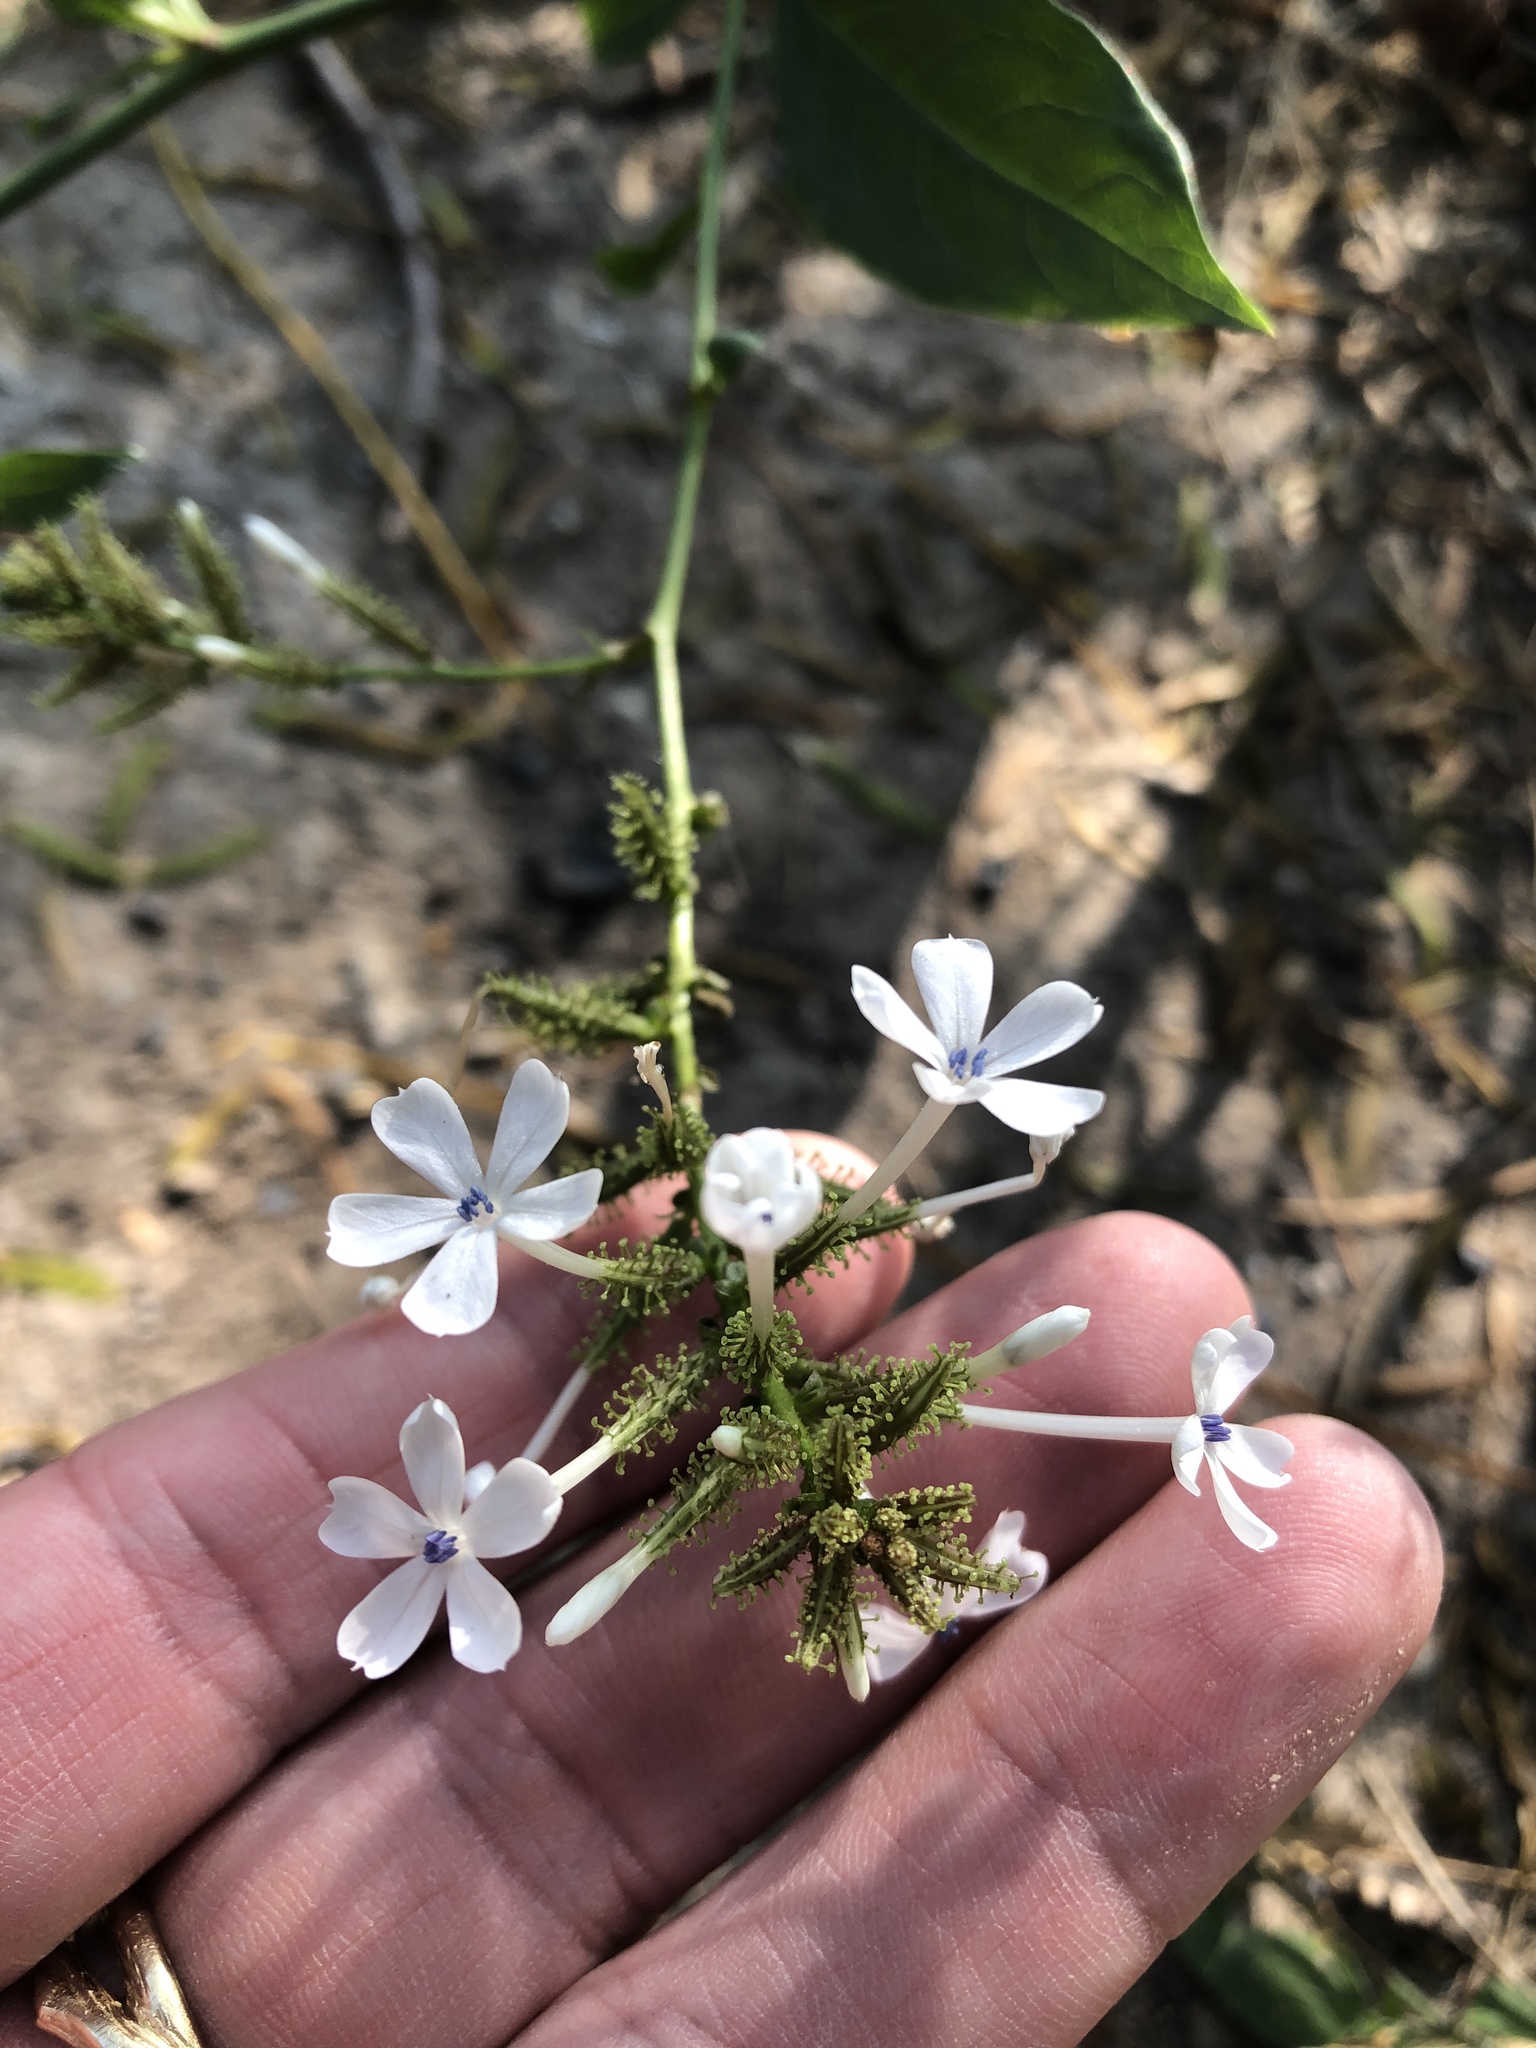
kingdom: Plantae
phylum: Tracheophyta
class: Magnoliopsida
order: Caryophyllales
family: Plumbaginaceae
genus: Plumbago
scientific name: Plumbago zeylanica
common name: Doctorbush
